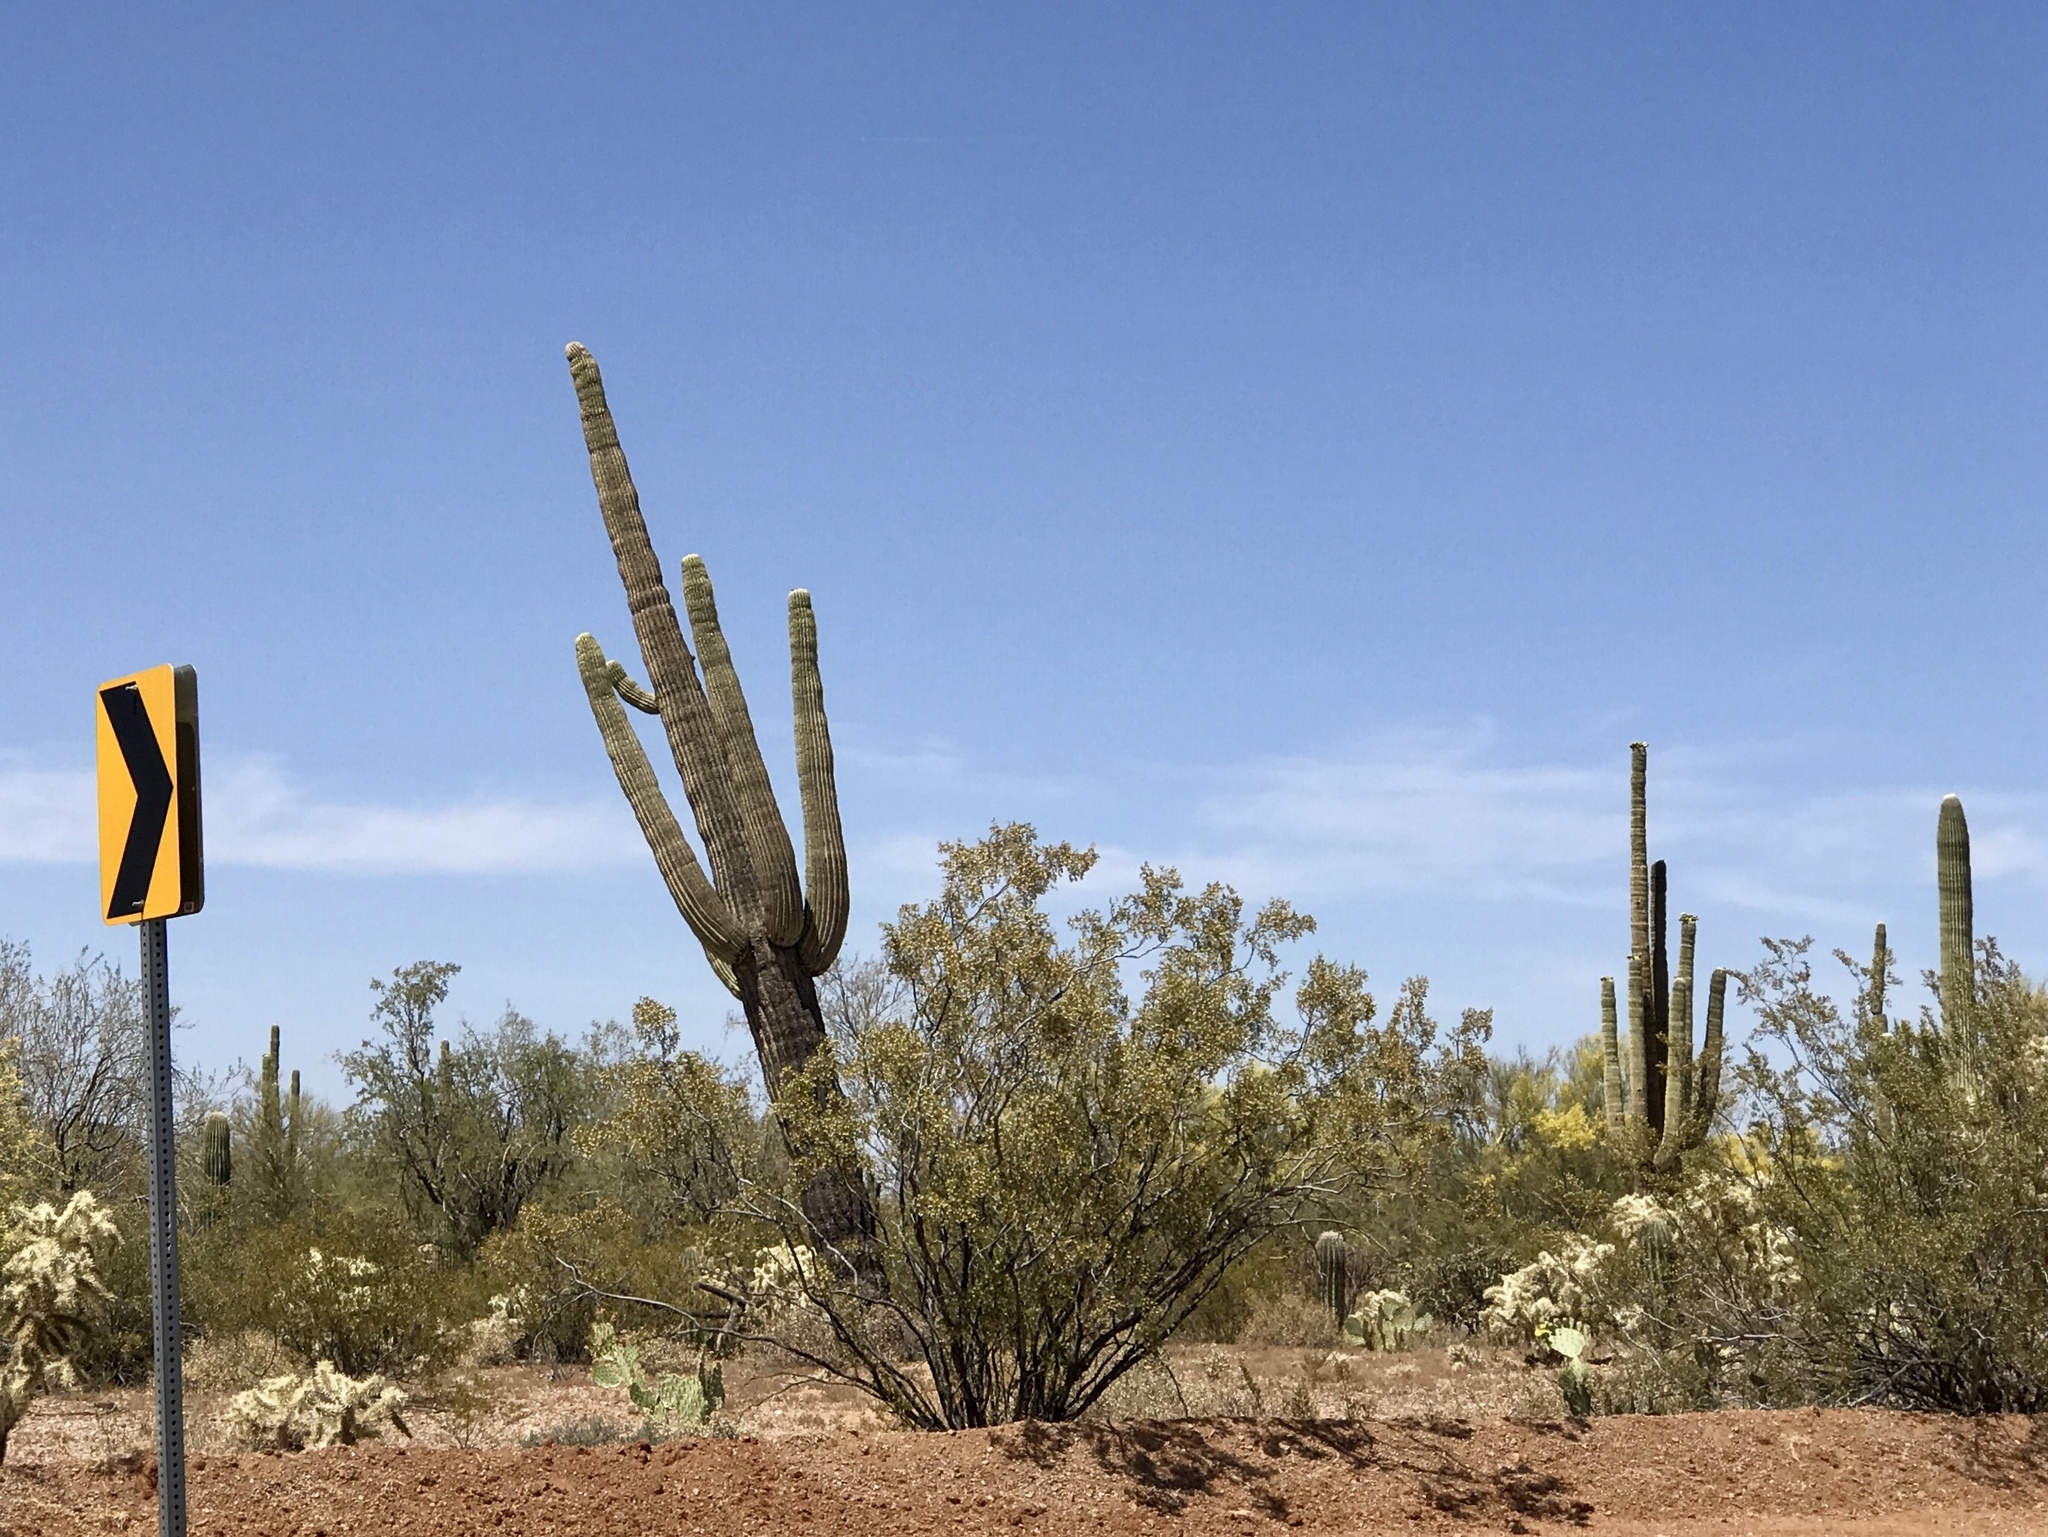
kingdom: Plantae
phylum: Tracheophyta
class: Magnoliopsida
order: Caryophyllales
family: Cactaceae
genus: Carnegiea
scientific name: Carnegiea gigantea
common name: Saguaro
